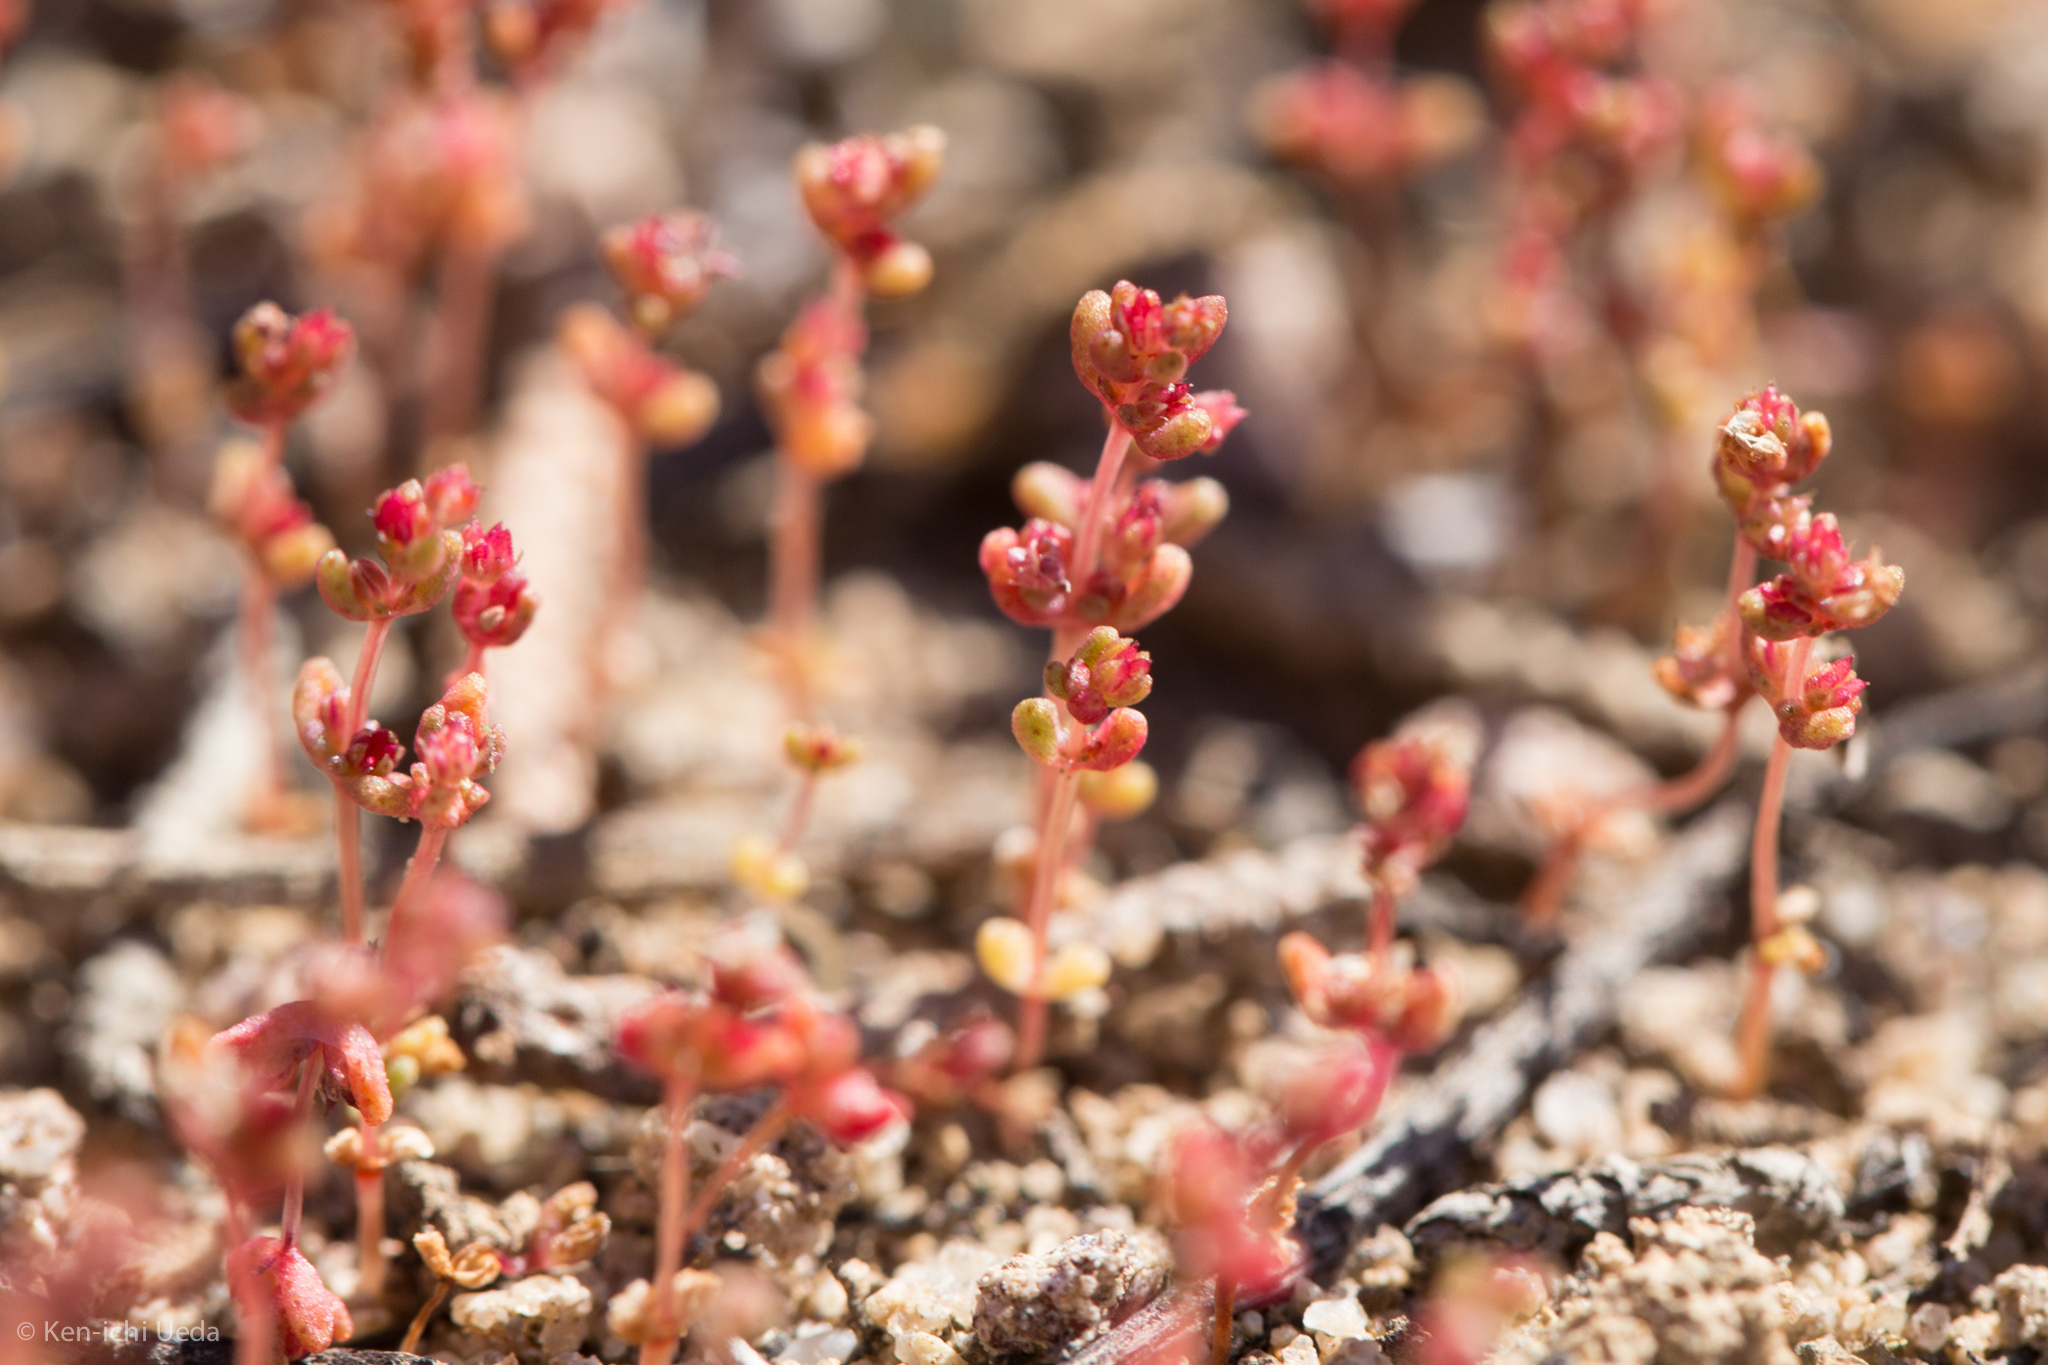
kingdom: Plantae
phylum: Tracheophyta
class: Magnoliopsida
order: Saxifragales
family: Crassulaceae
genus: Crassula
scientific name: Crassula connata
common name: Erect pygmyweed
